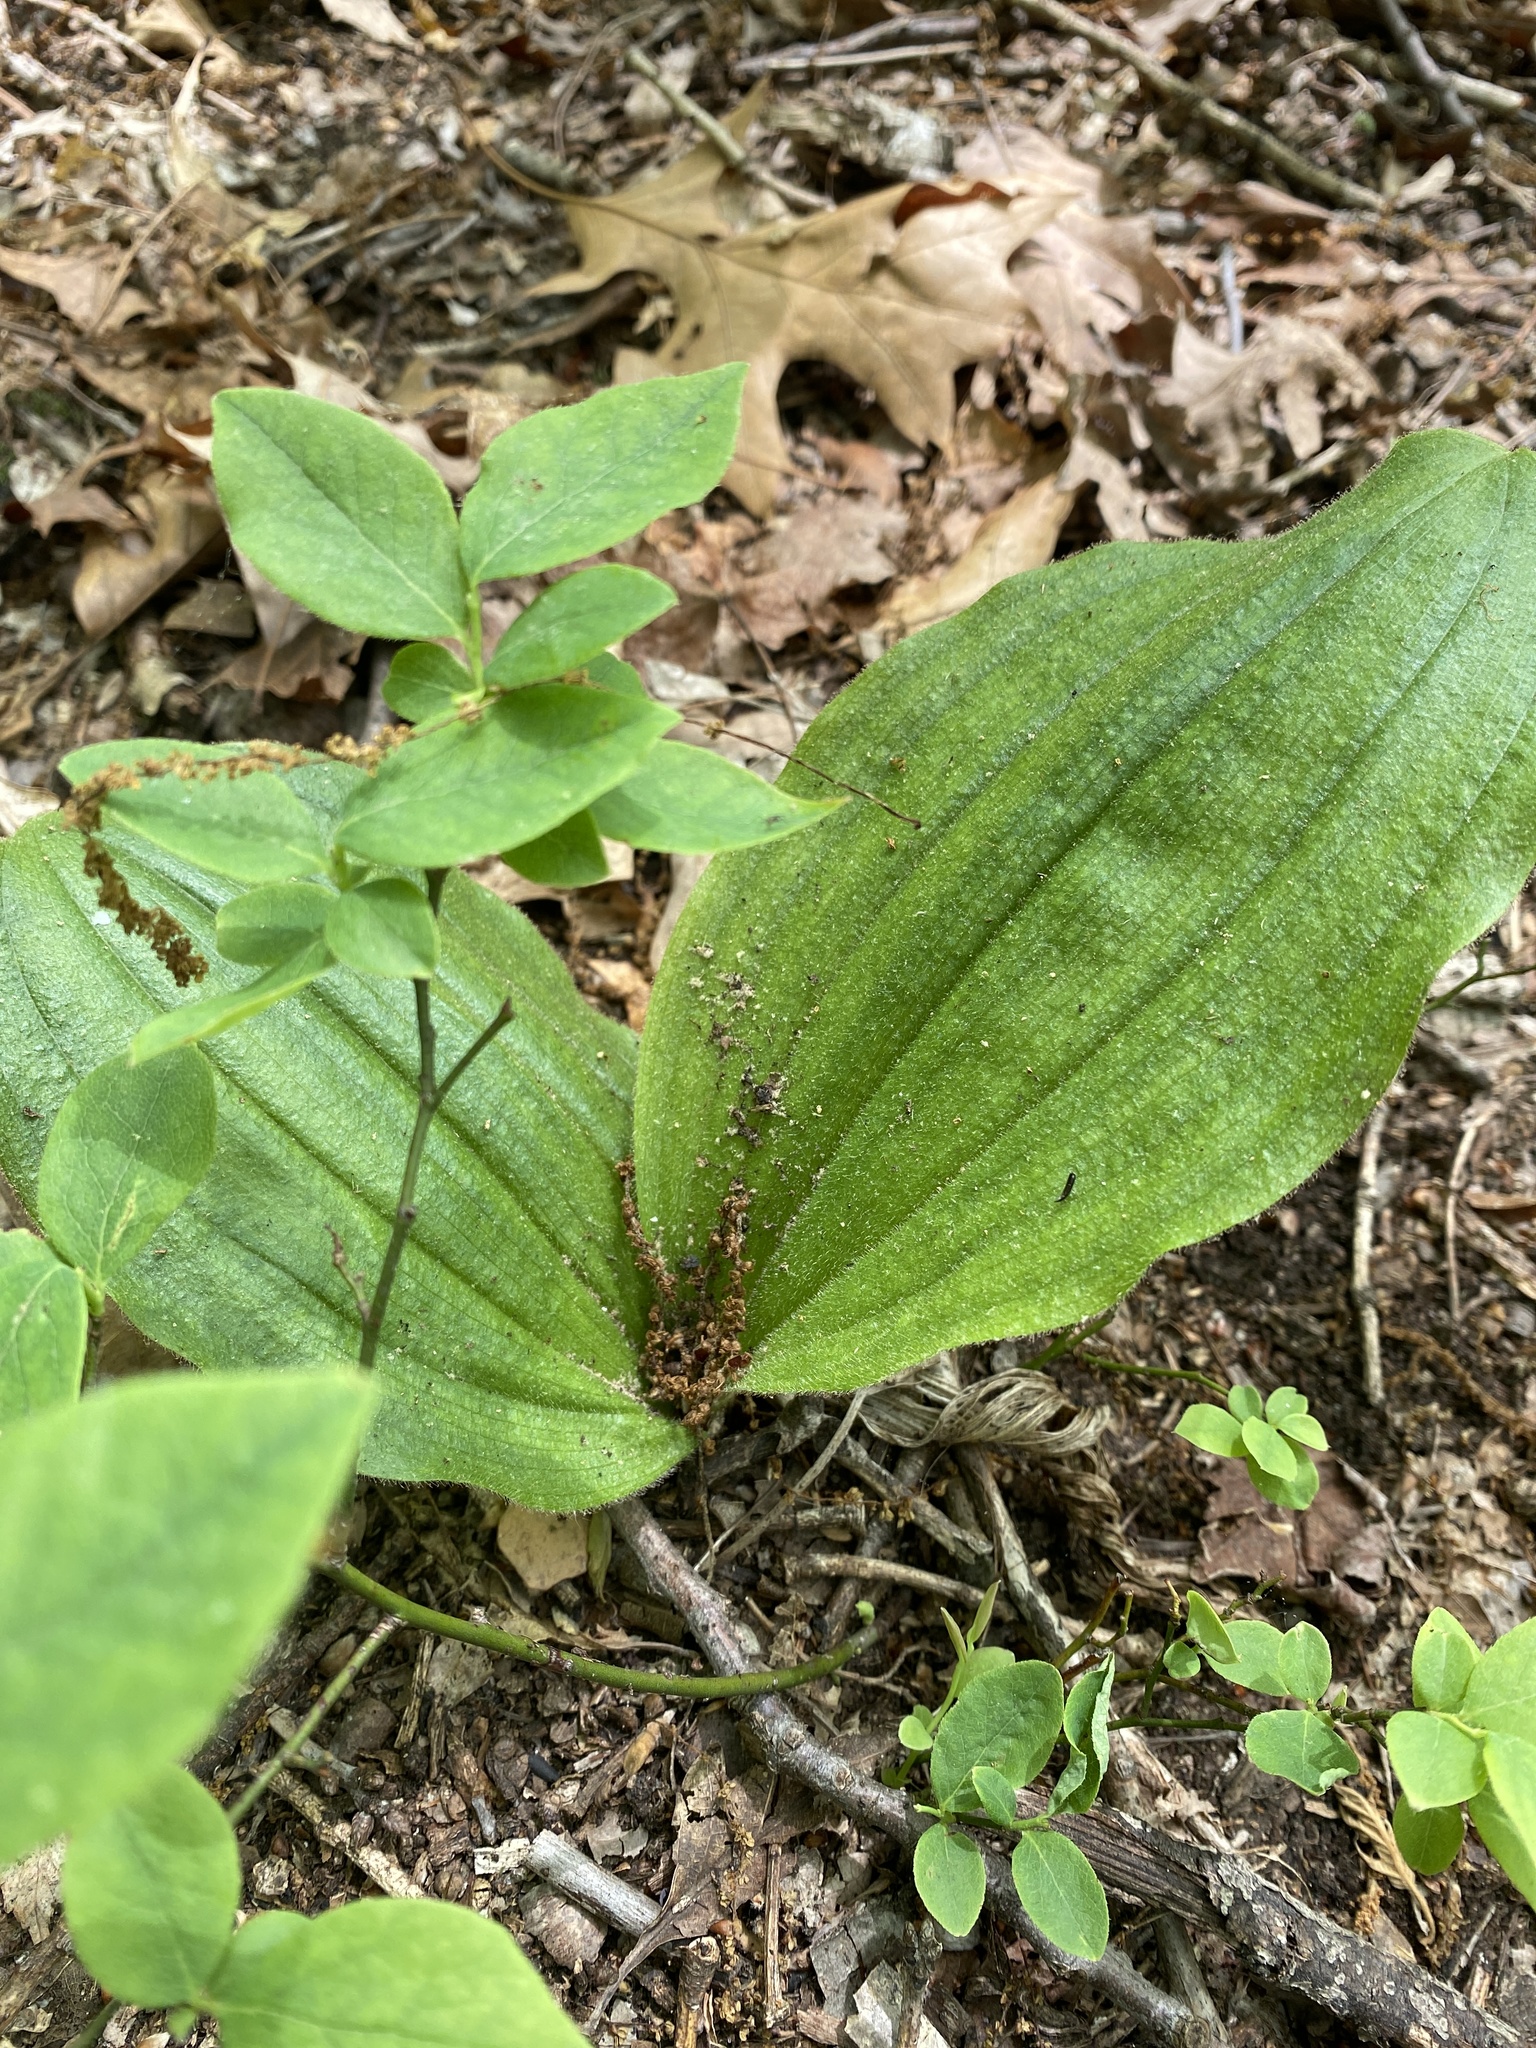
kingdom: Plantae
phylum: Tracheophyta
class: Liliopsida
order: Asparagales
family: Orchidaceae
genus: Cypripedium
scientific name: Cypripedium acaule
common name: Pink lady's-slipper
